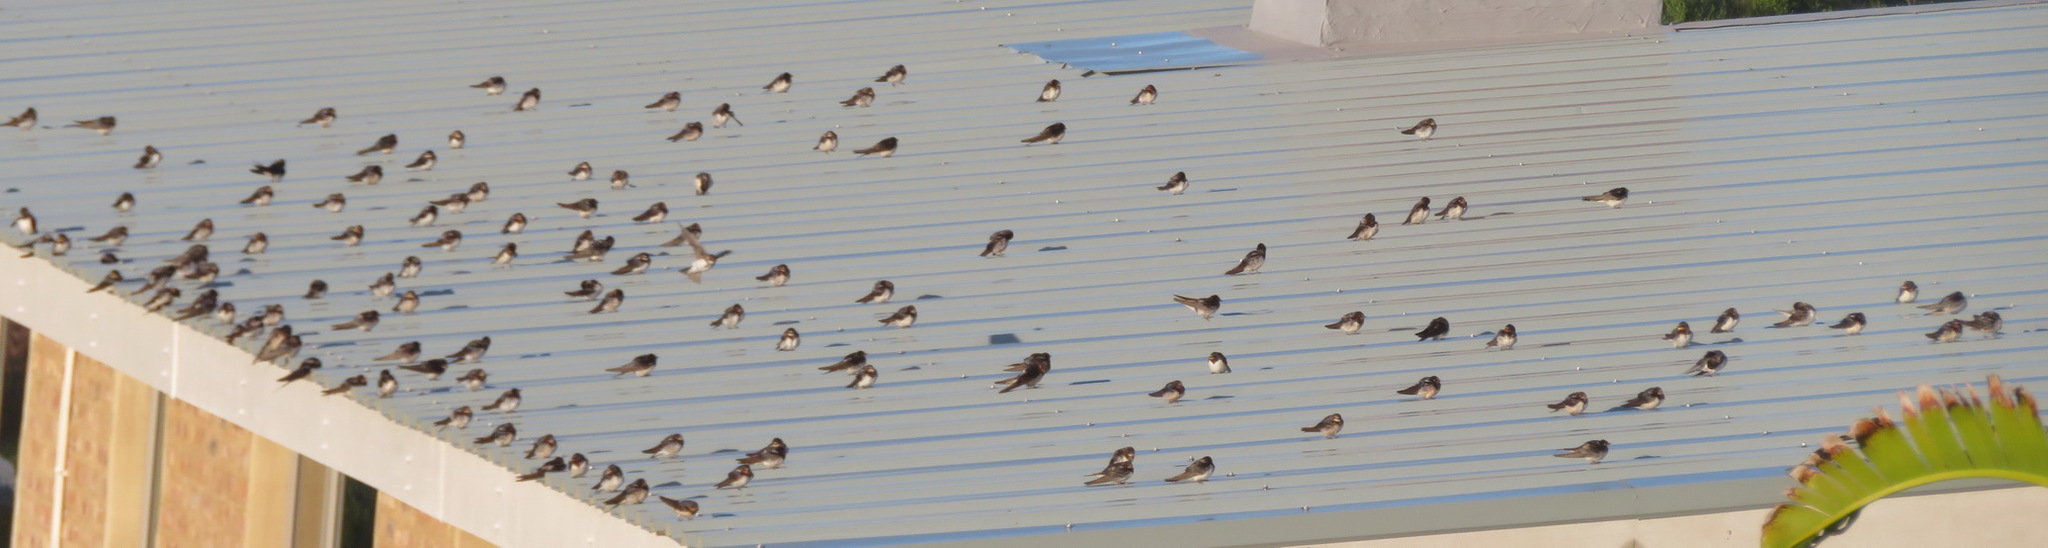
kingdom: Animalia
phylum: Chordata
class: Aves
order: Passeriformes
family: Hirundinidae
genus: Hirundo
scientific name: Hirundo rustica
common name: Barn swallow
